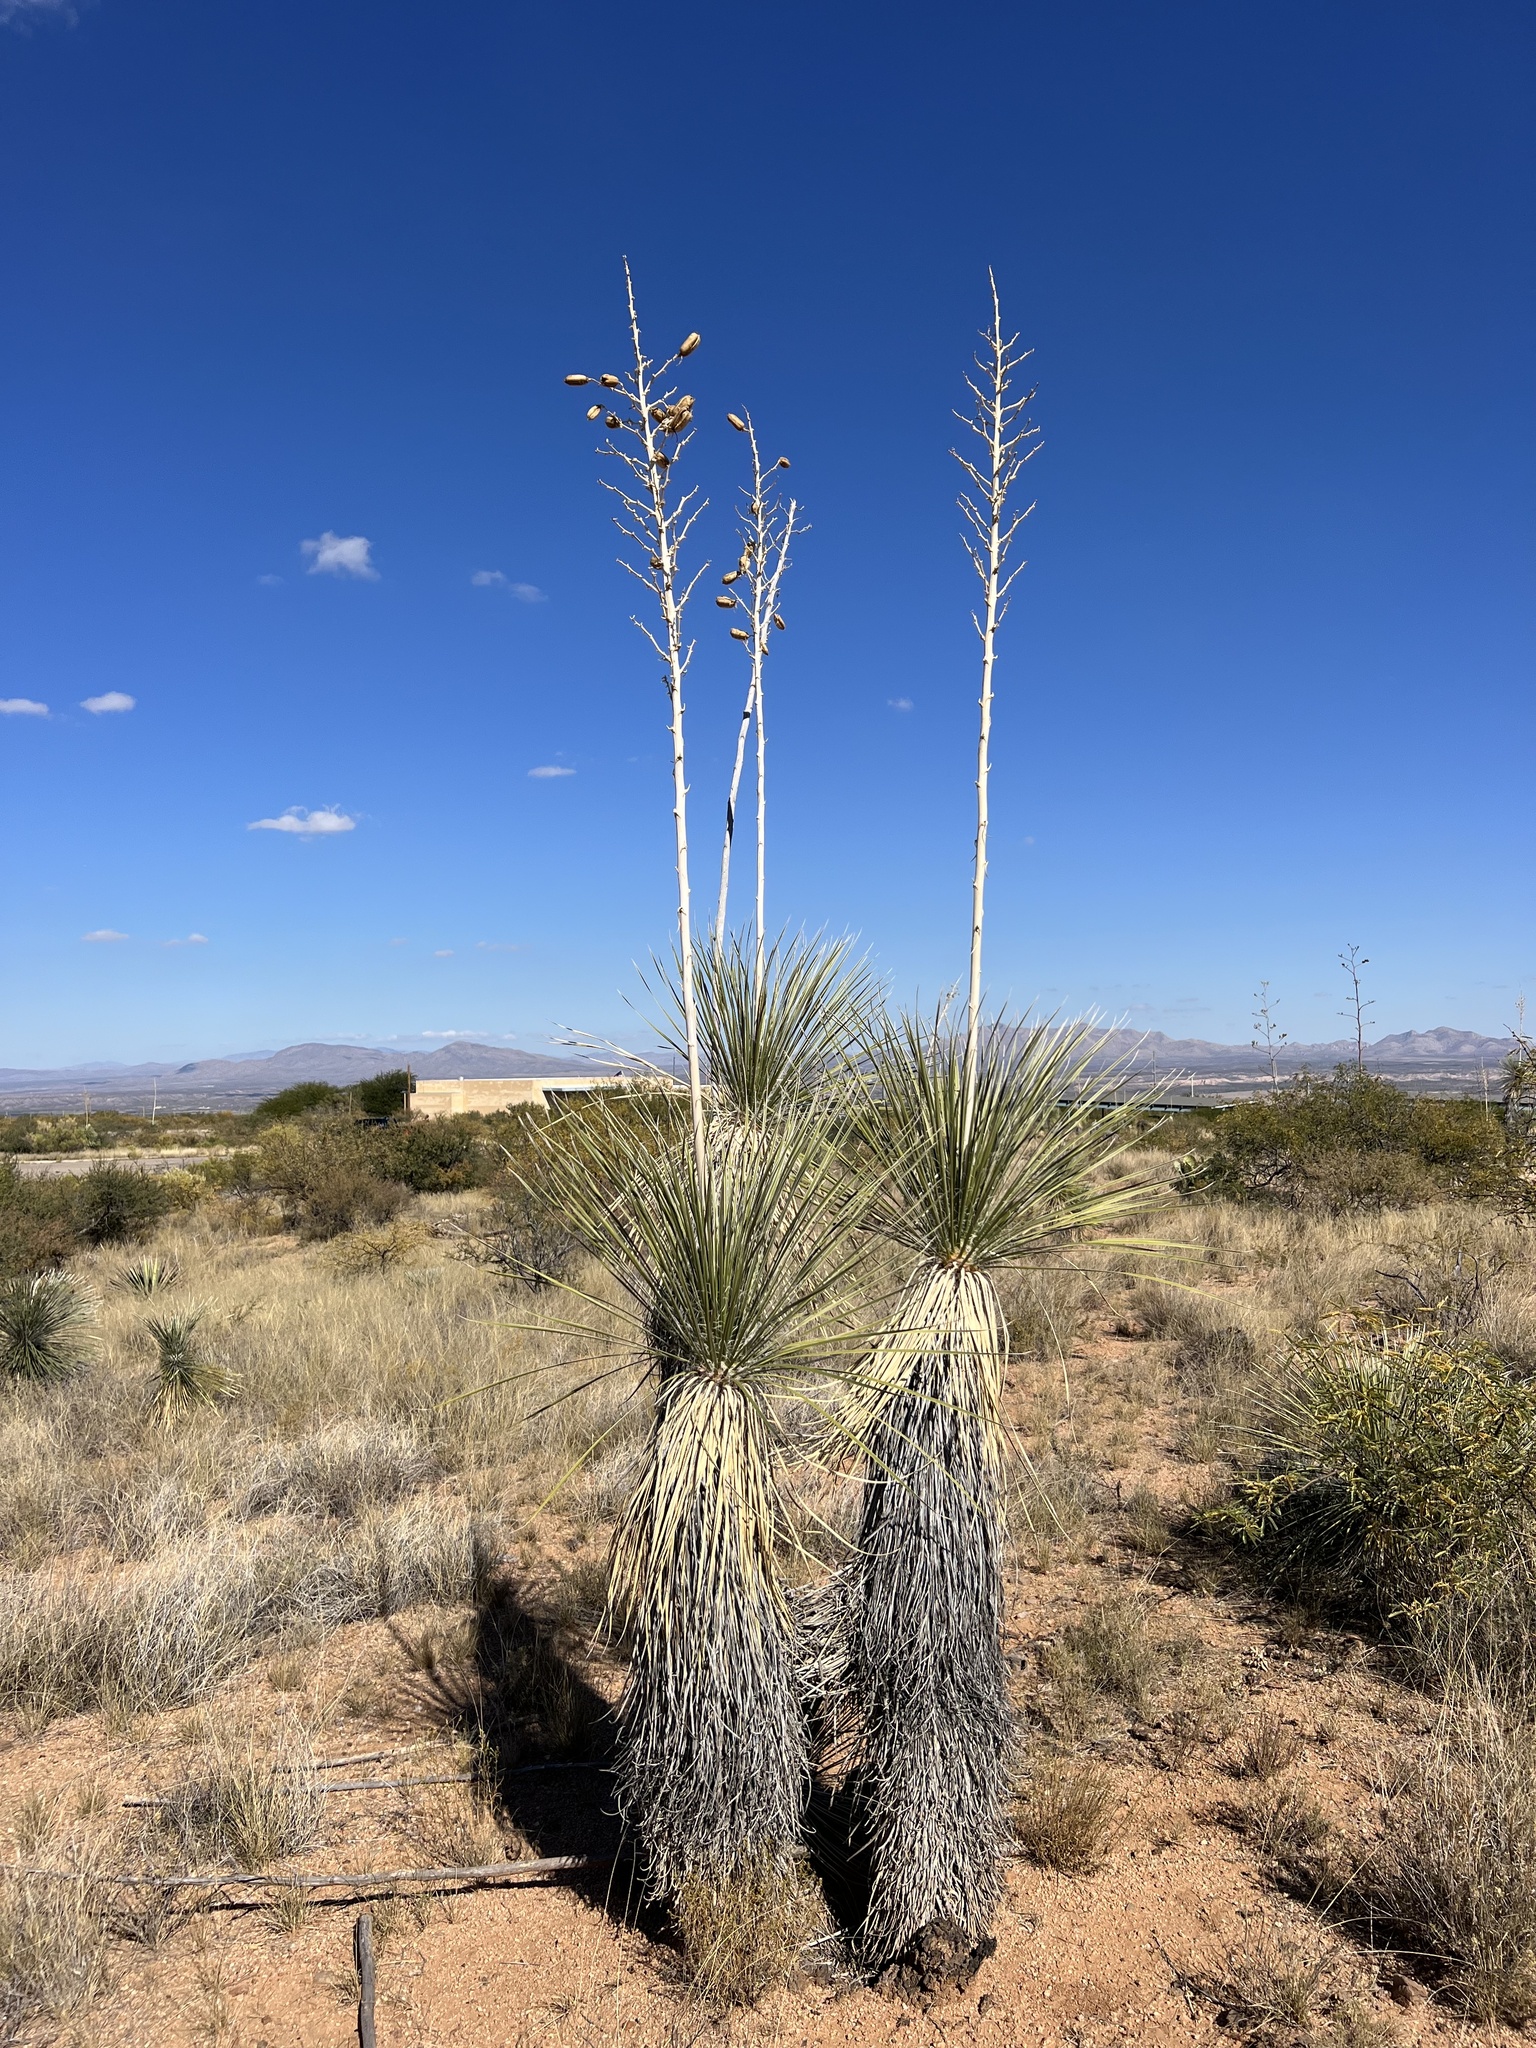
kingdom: Plantae
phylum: Tracheophyta
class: Liliopsida
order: Asparagales
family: Asparagaceae
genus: Yucca
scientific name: Yucca elata
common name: Palmella
